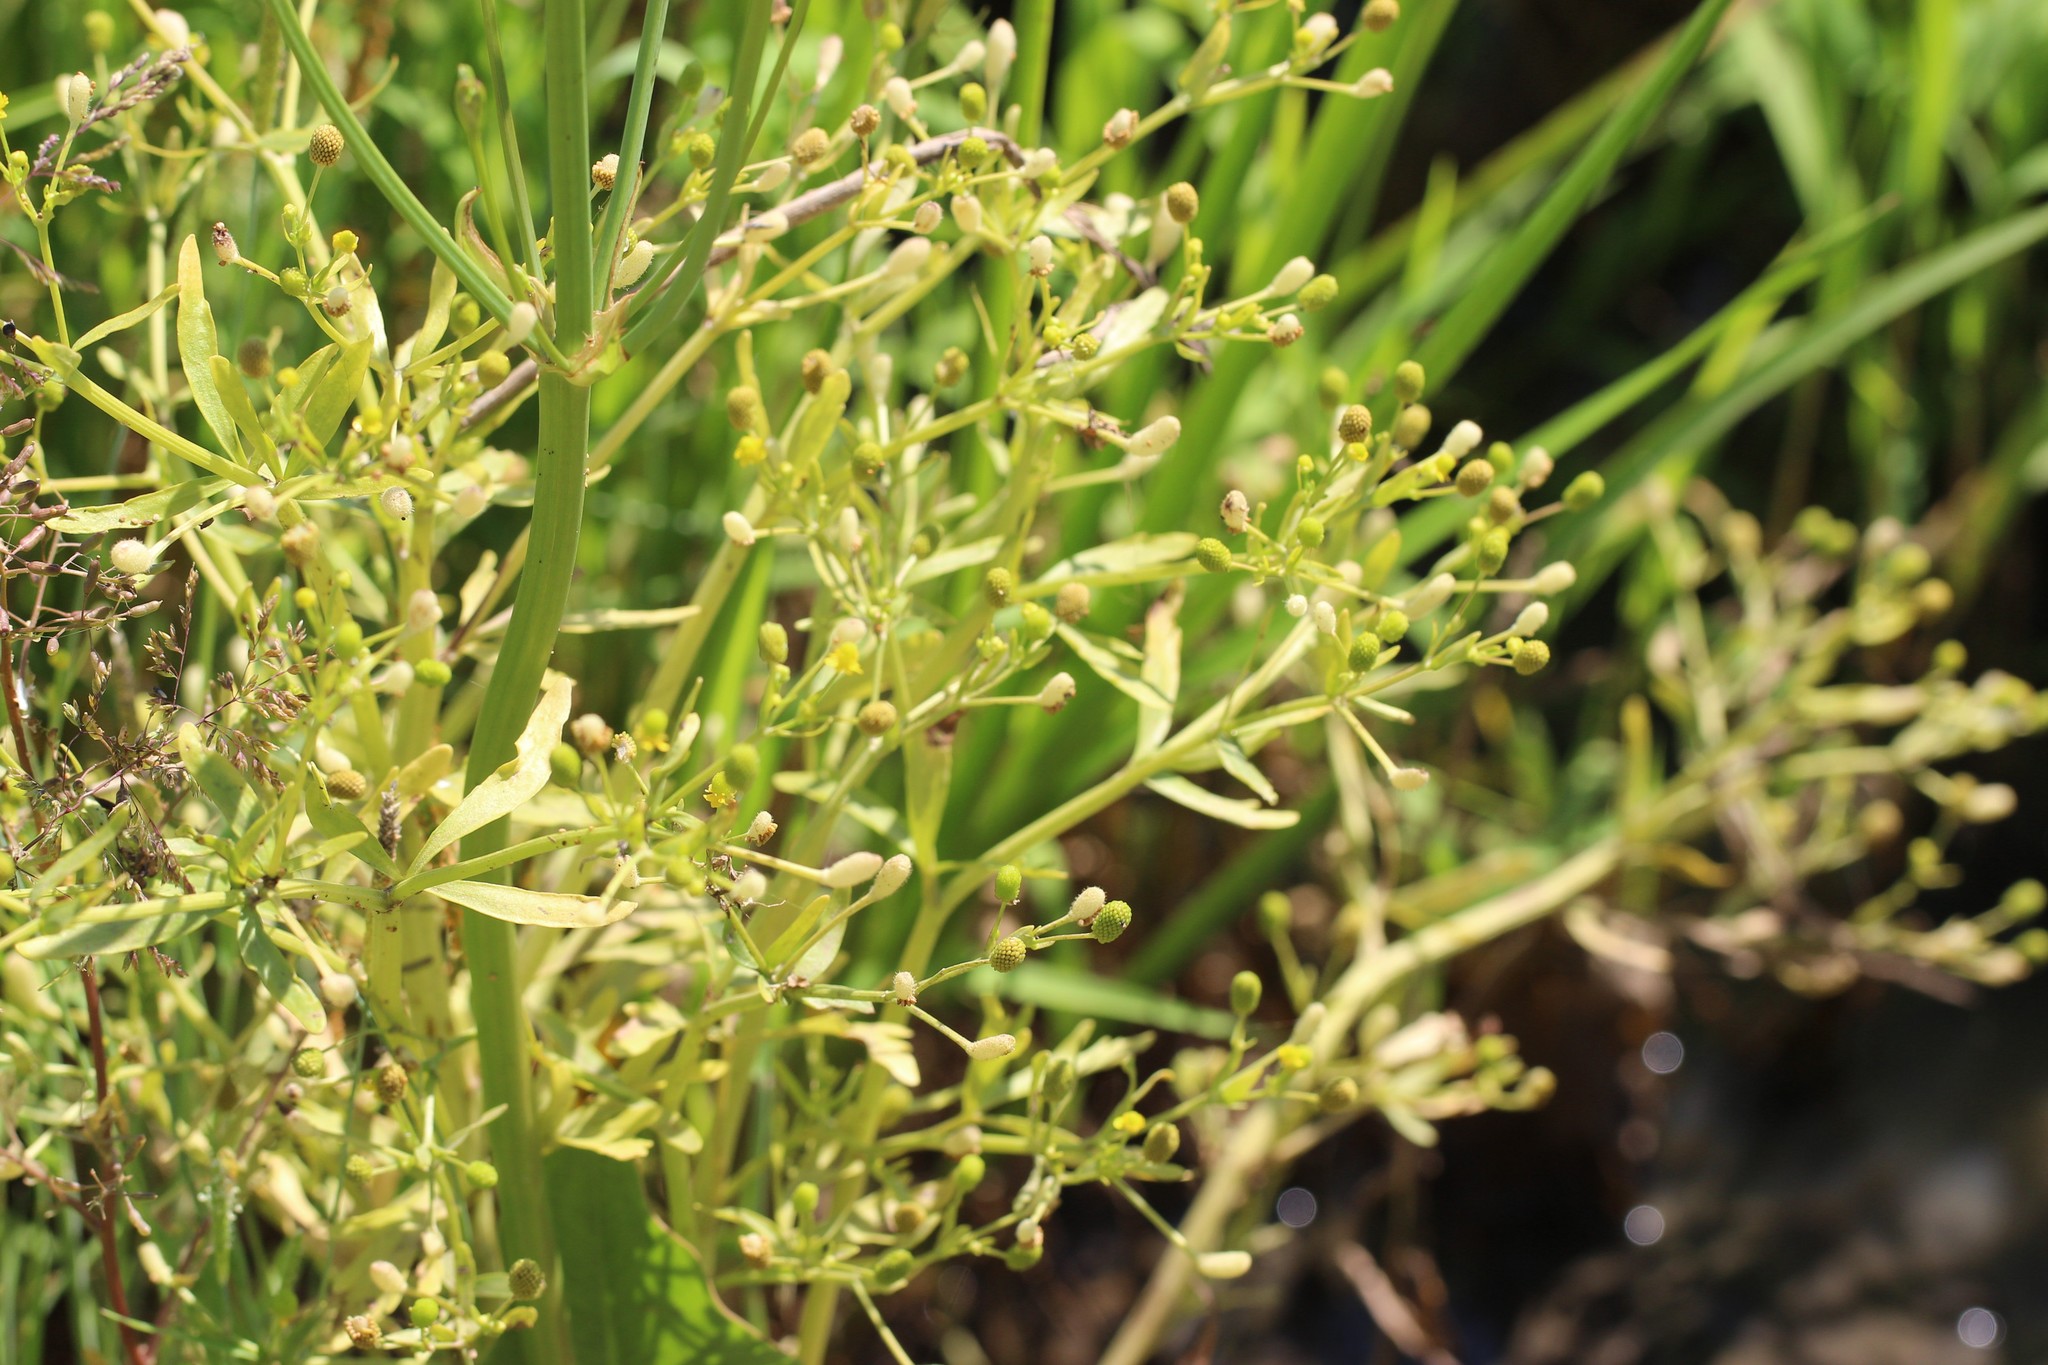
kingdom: Plantae
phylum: Tracheophyta
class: Magnoliopsida
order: Ranunculales
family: Ranunculaceae
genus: Ranunculus
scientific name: Ranunculus sceleratus
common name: Celery-leaved buttercup
